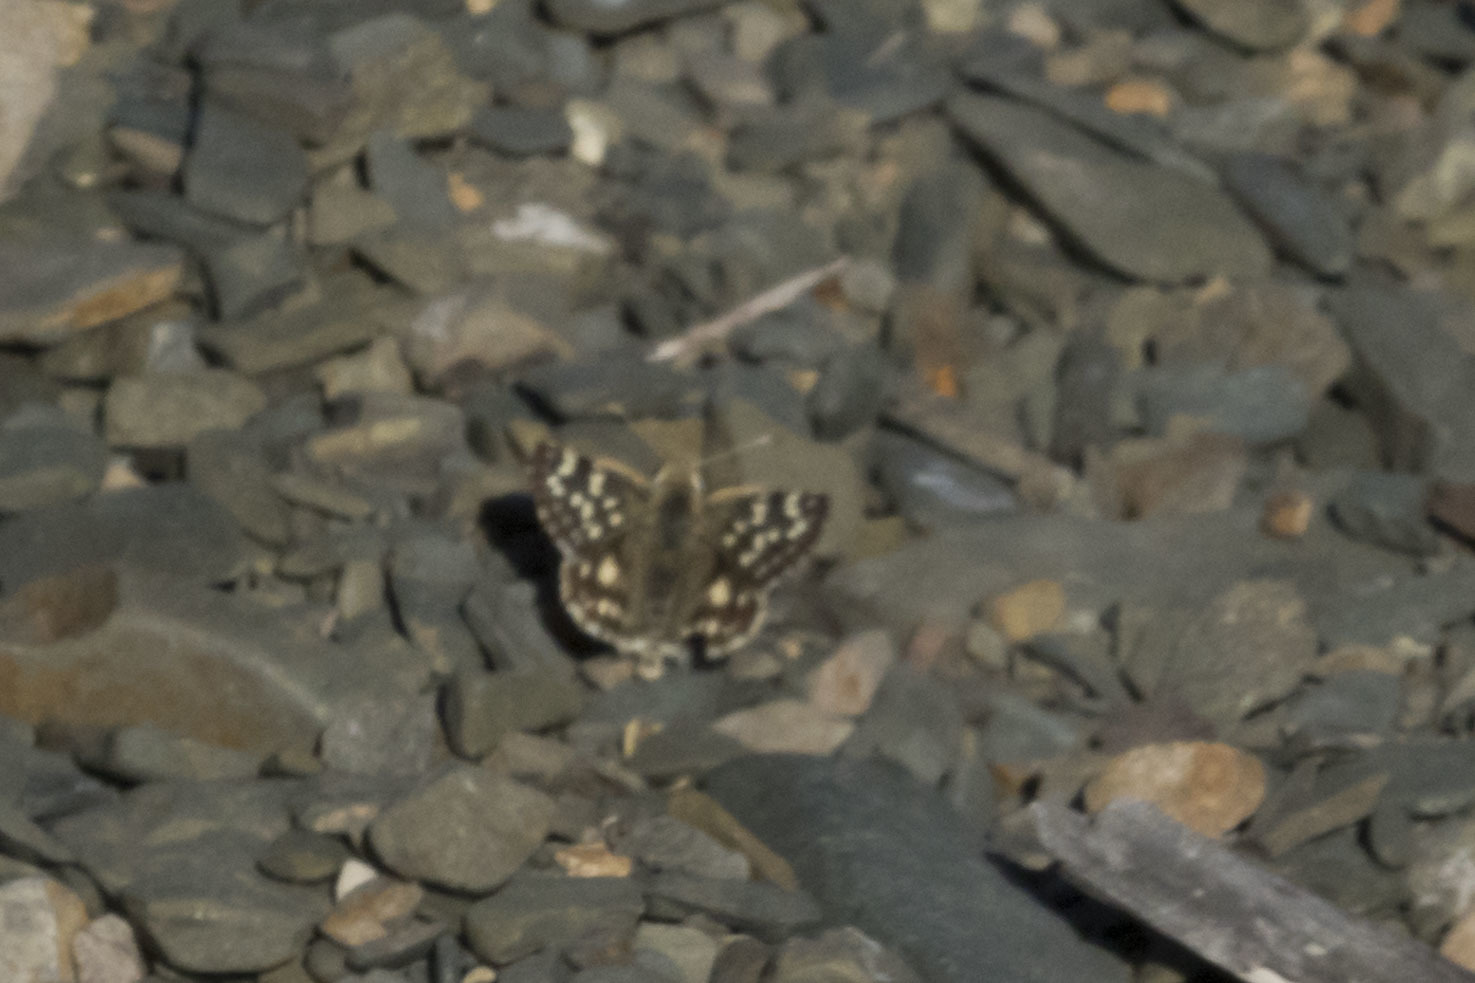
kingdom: Animalia
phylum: Arthropoda
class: Insecta
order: Lepidoptera
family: Hesperiidae
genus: Chirgus
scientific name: Chirgus fides
